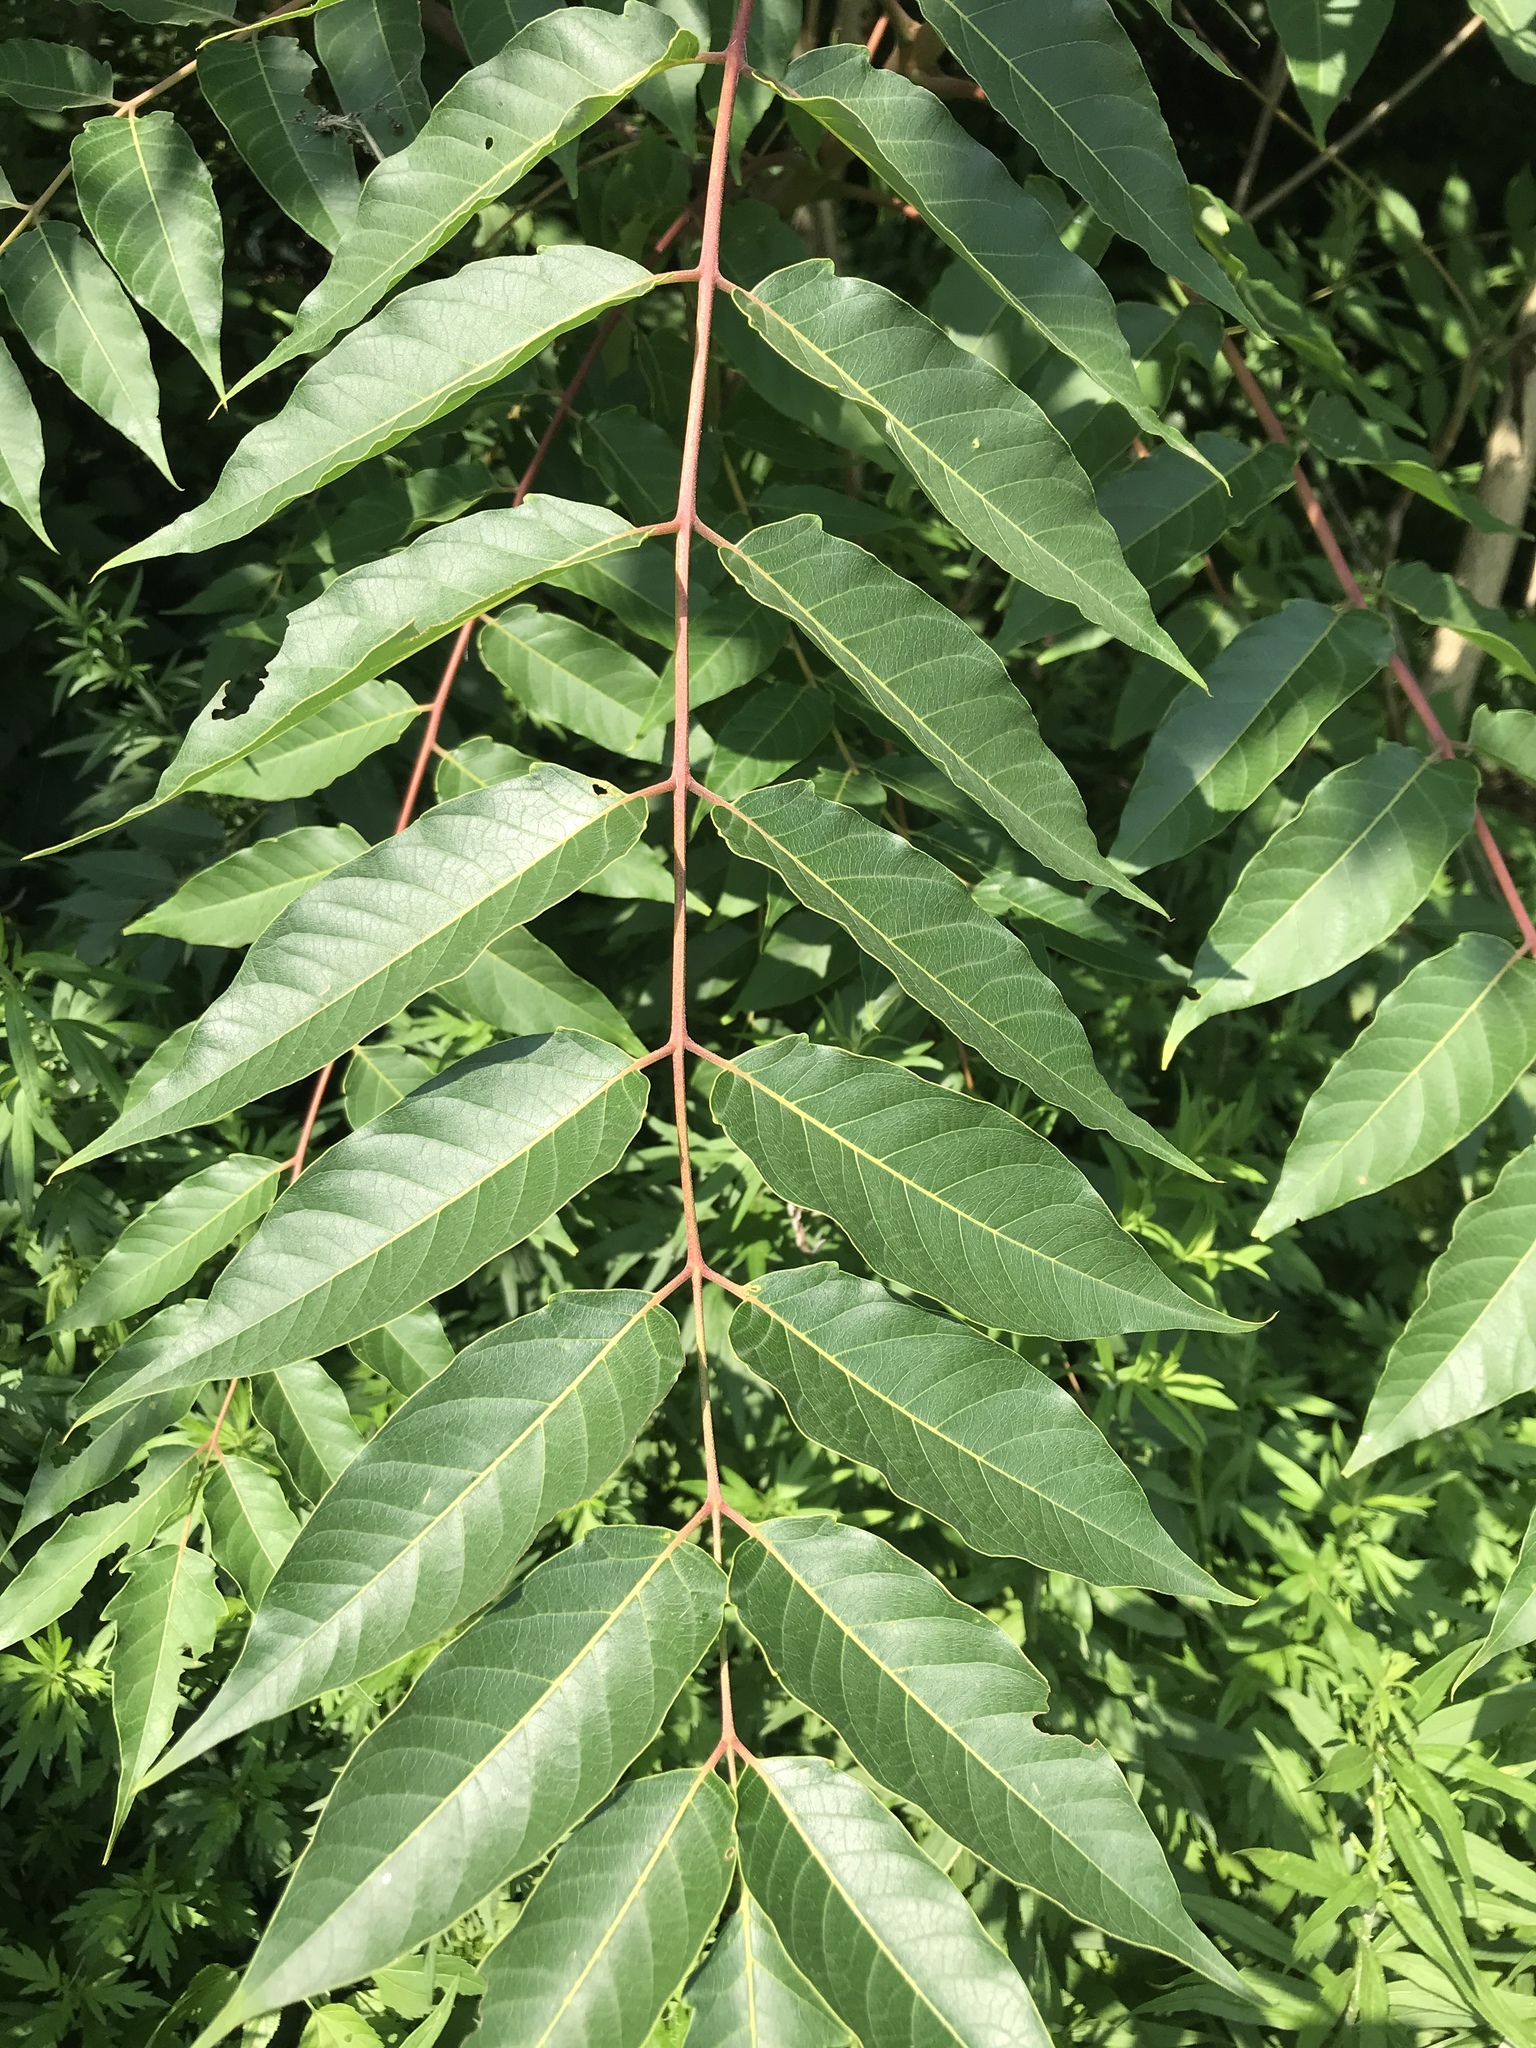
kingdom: Plantae
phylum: Tracheophyta
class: Magnoliopsida
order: Sapindales
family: Simaroubaceae
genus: Ailanthus
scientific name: Ailanthus altissima
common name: Tree-of-heaven
